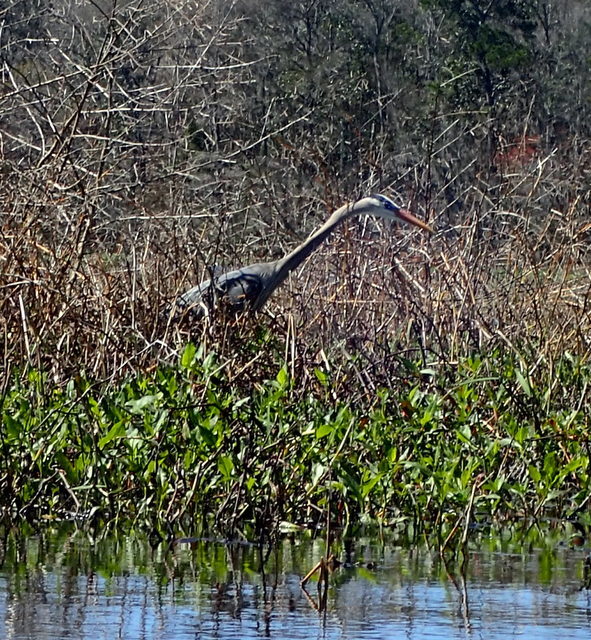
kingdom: Animalia
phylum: Chordata
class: Aves
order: Pelecaniformes
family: Ardeidae
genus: Ardea
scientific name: Ardea herodias
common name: Great blue heron
